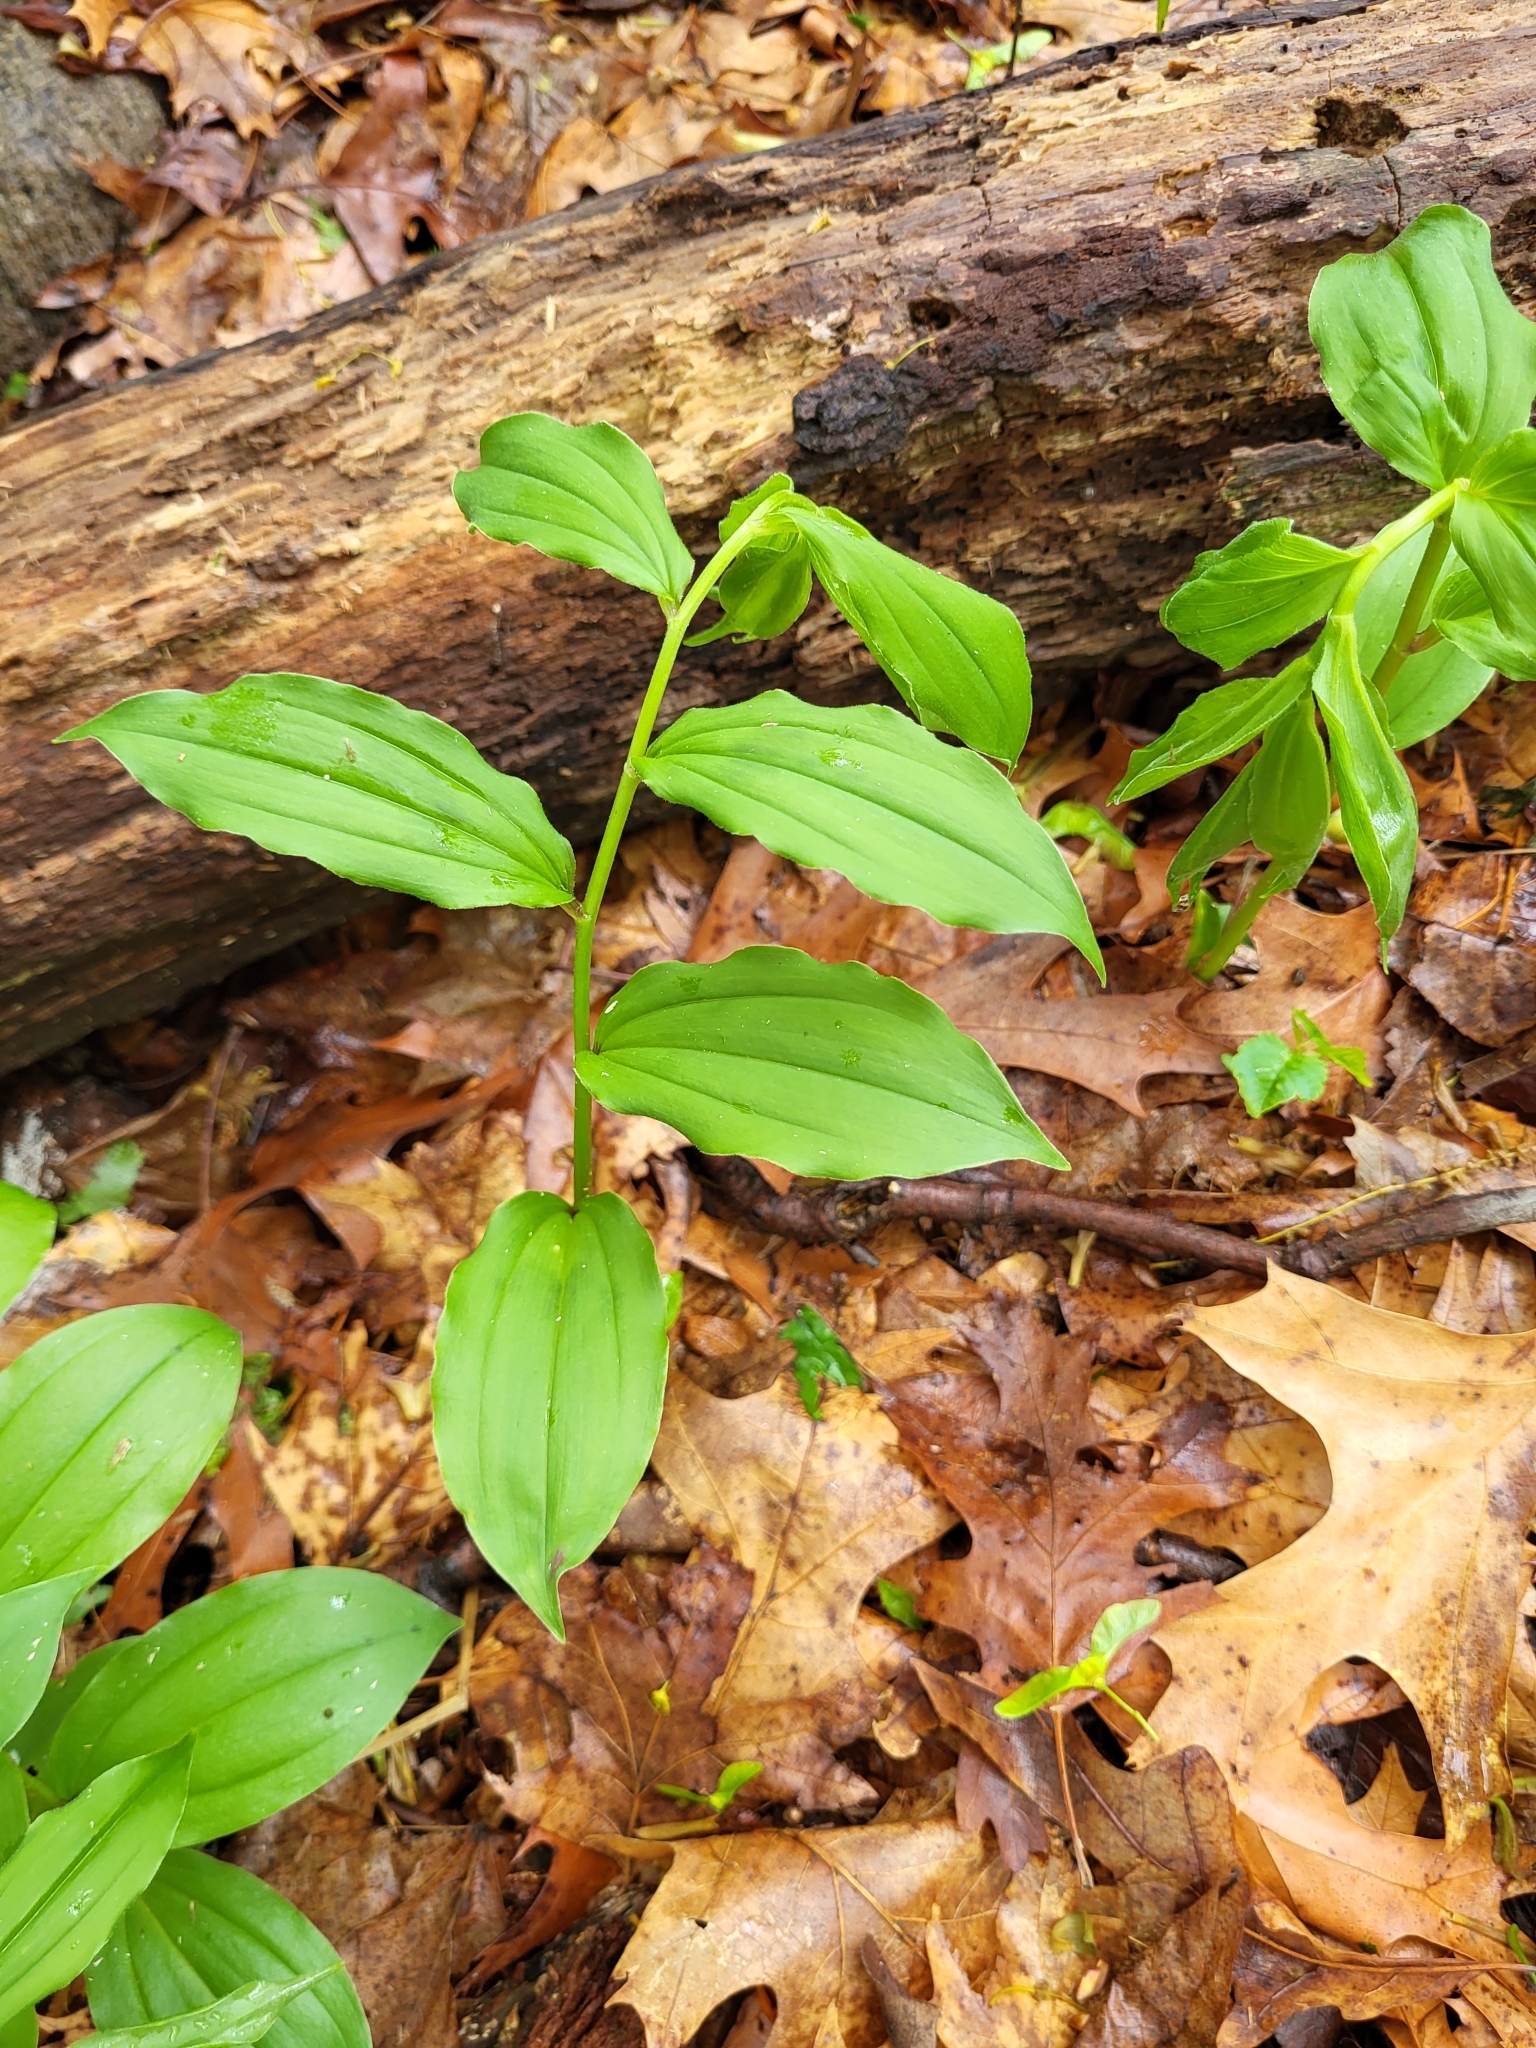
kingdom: Plantae
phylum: Tracheophyta
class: Liliopsida
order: Asparagales
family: Asparagaceae
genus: Maianthemum
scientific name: Maianthemum racemosum
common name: False spikenard
